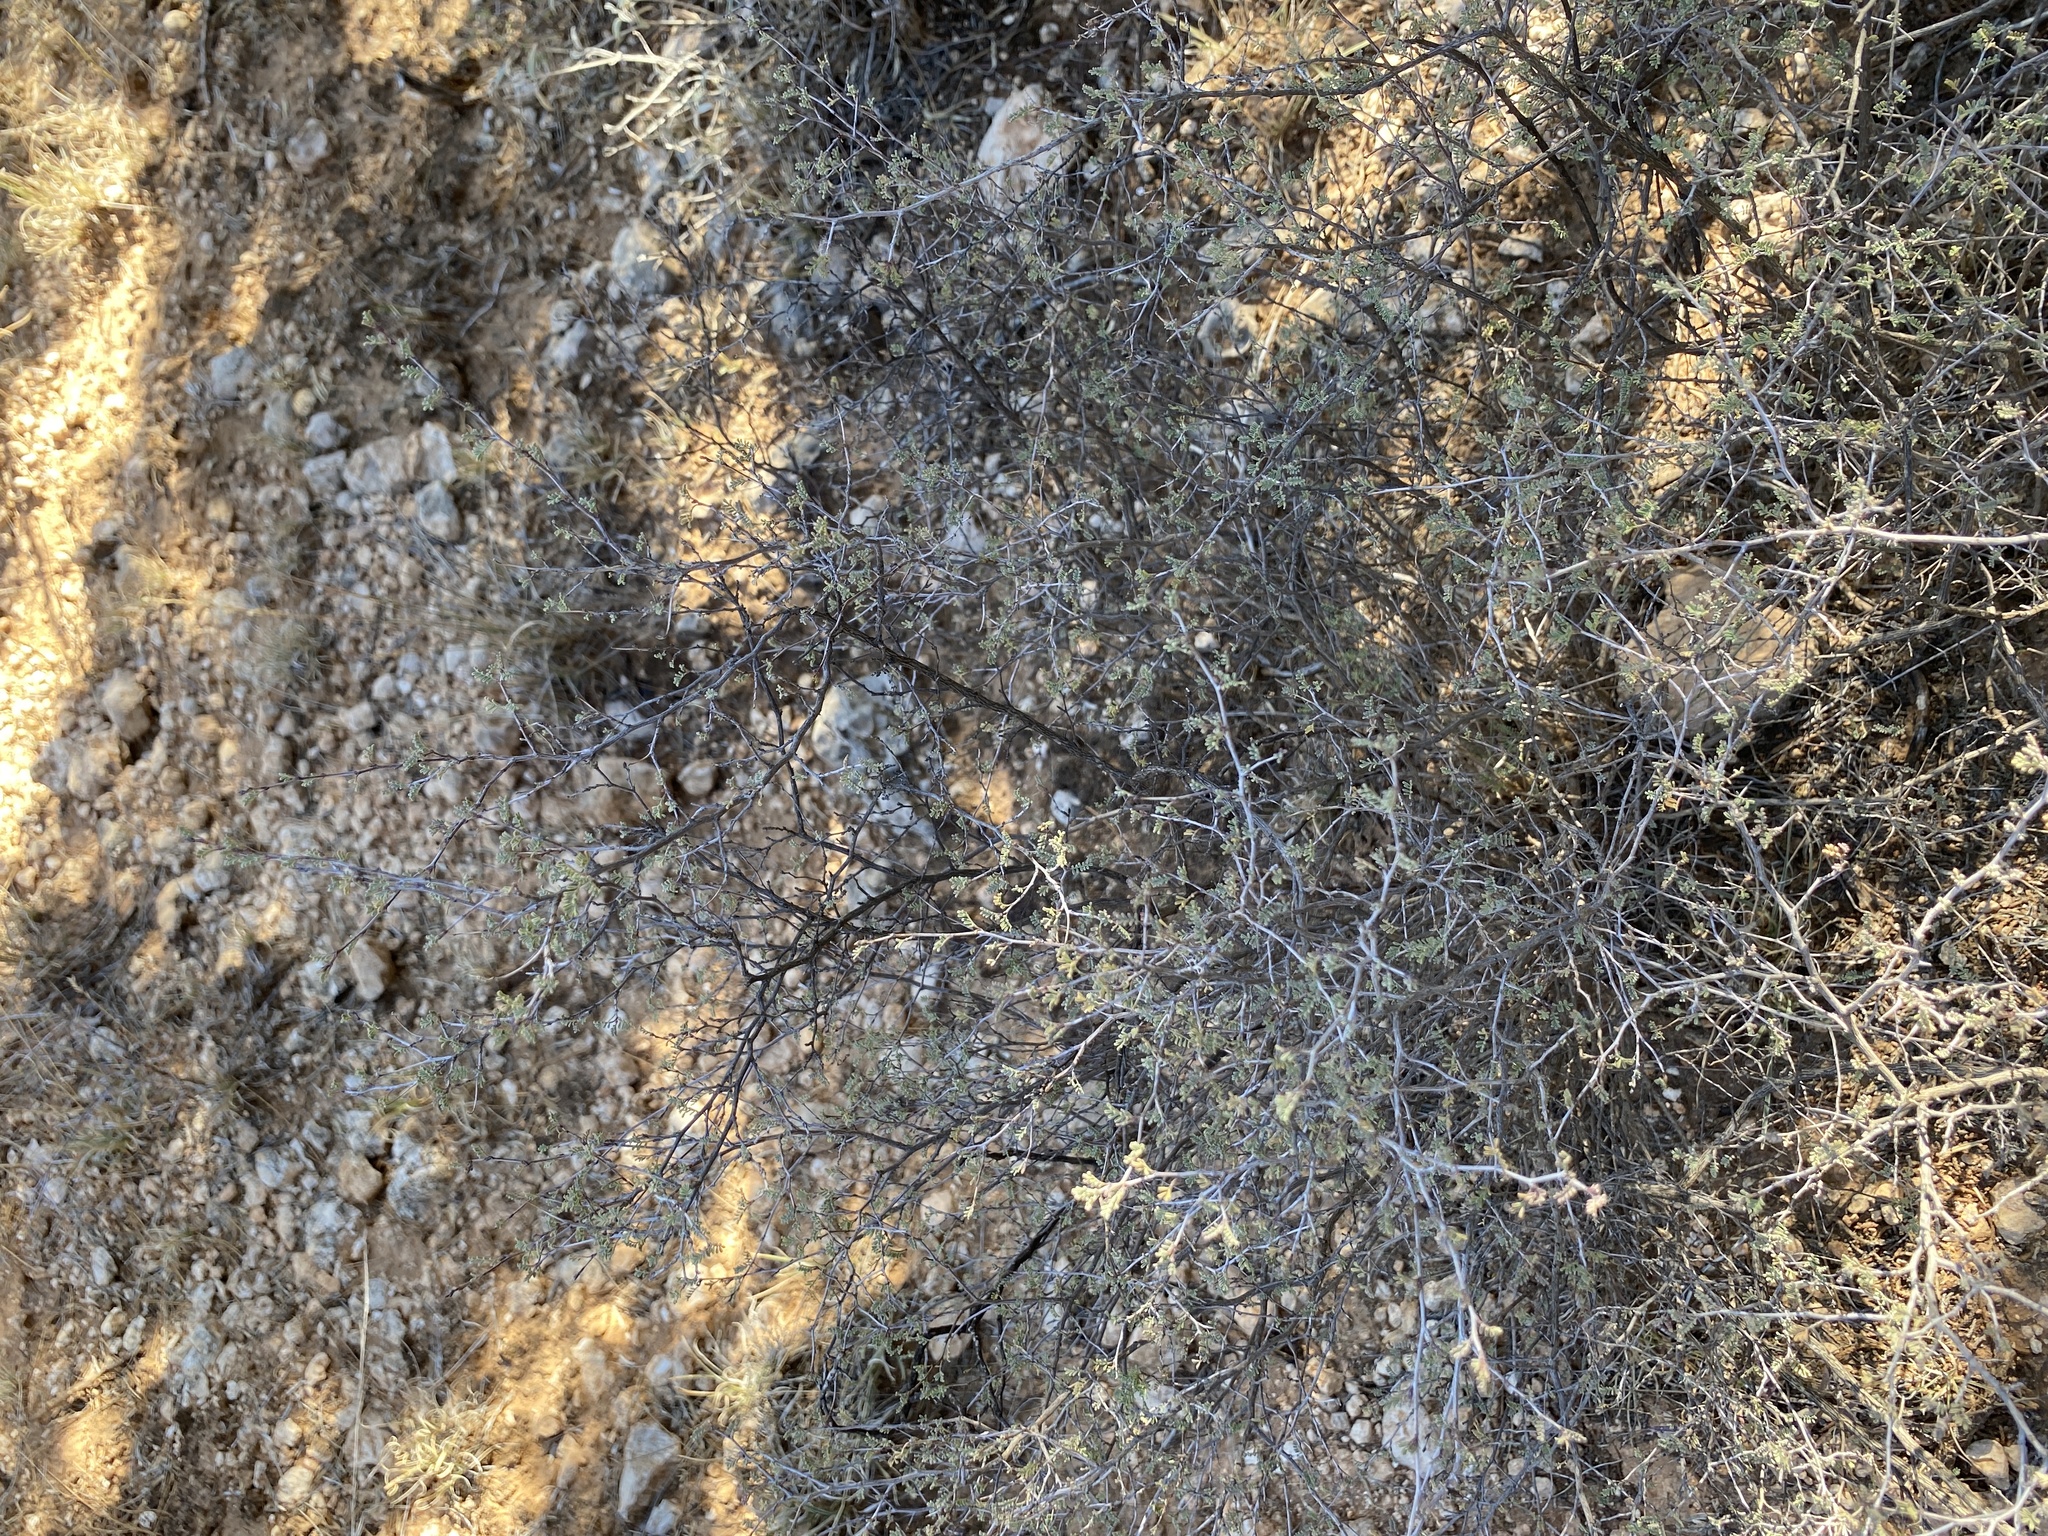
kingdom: Plantae
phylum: Tracheophyta
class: Magnoliopsida
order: Fabales
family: Fabaceae
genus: Dalea
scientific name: Dalea formosa
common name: Feather-plume dalea
